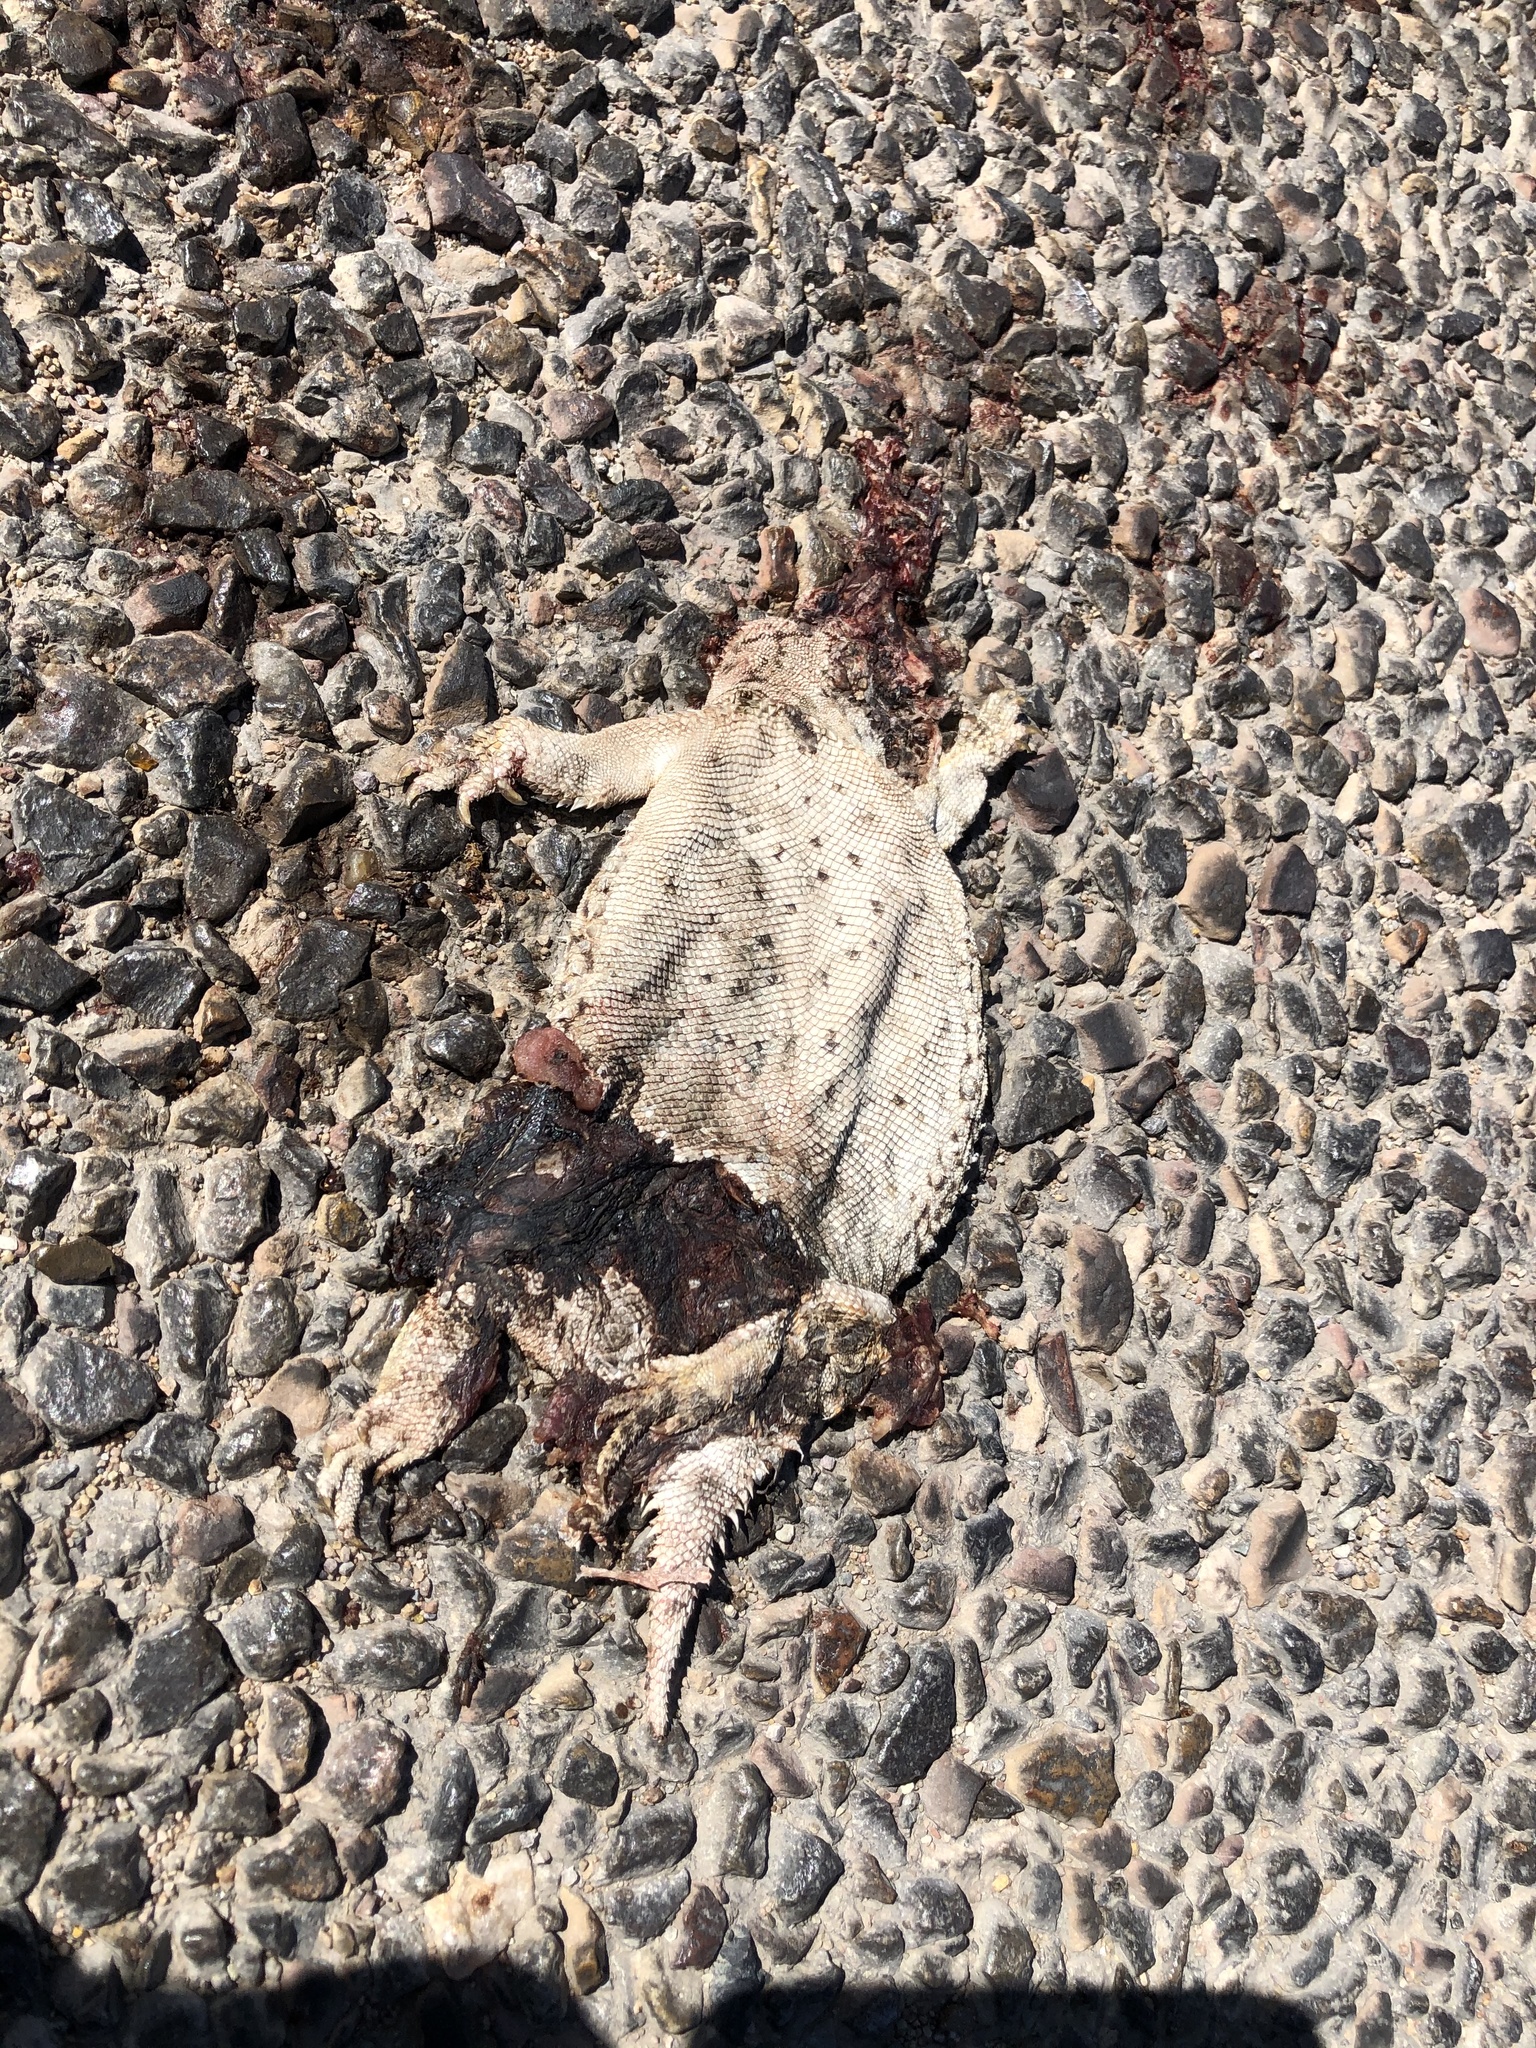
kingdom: Animalia
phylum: Chordata
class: Squamata
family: Phrynosomatidae
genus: Phrynosoma
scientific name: Phrynosoma cornutum
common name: Texas horned lizard
